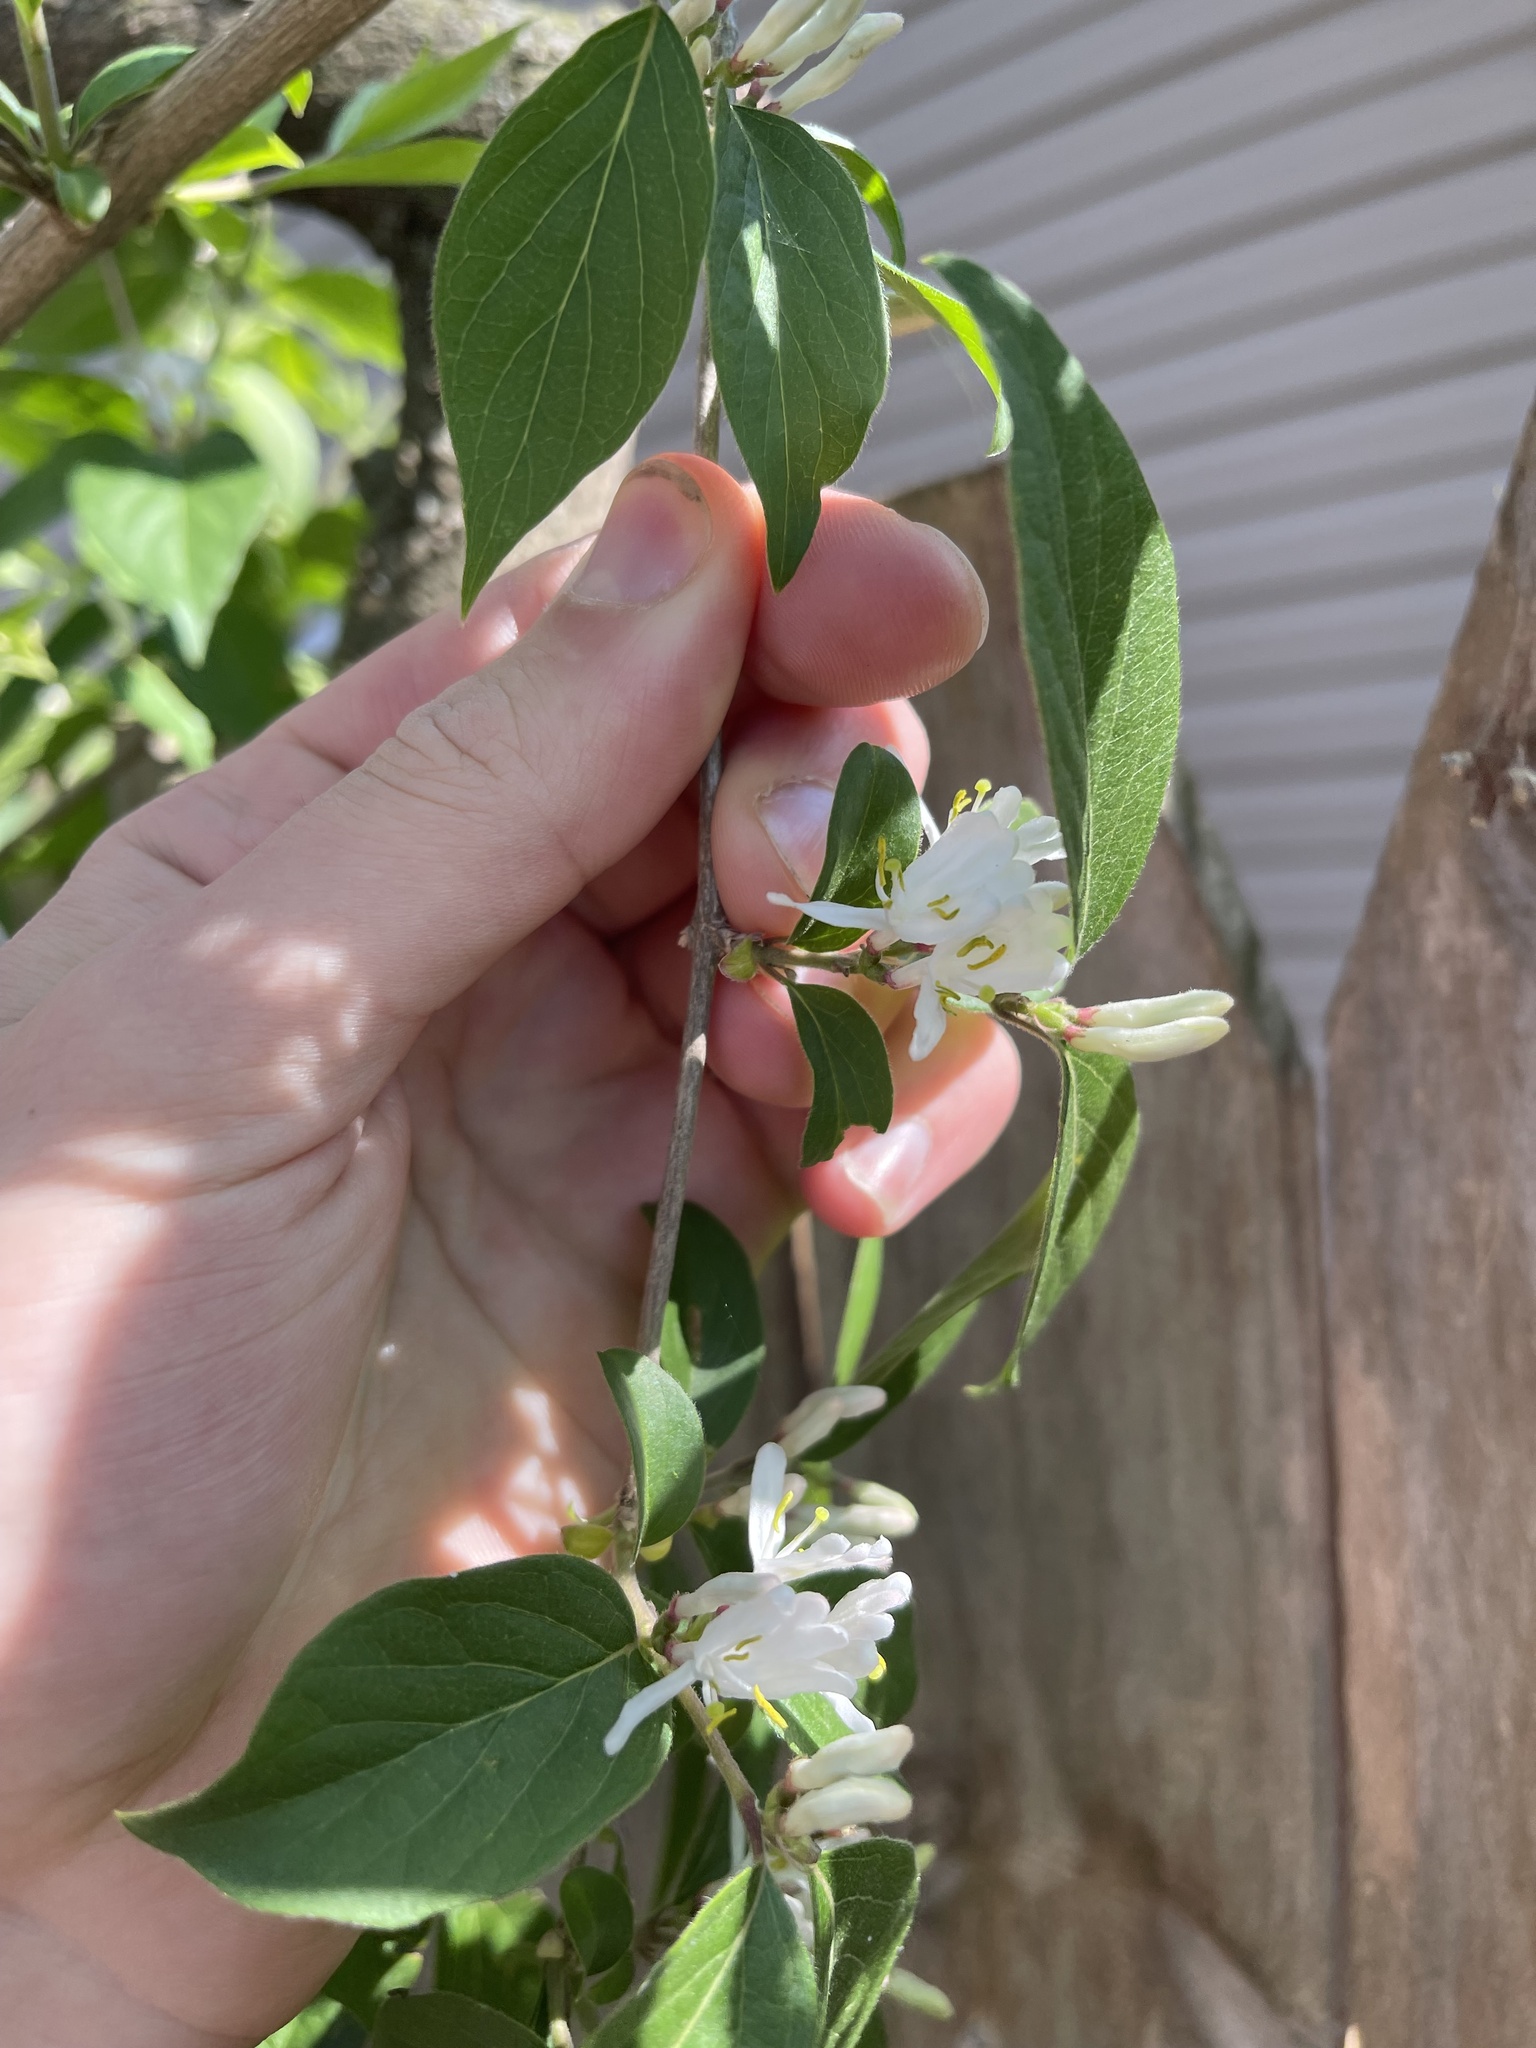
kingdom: Plantae
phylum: Tracheophyta
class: Magnoliopsida
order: Dipsacales
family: Caprifoliaceae
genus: Lonicera
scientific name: Lonicera maackii
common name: Amur honeysuckle
